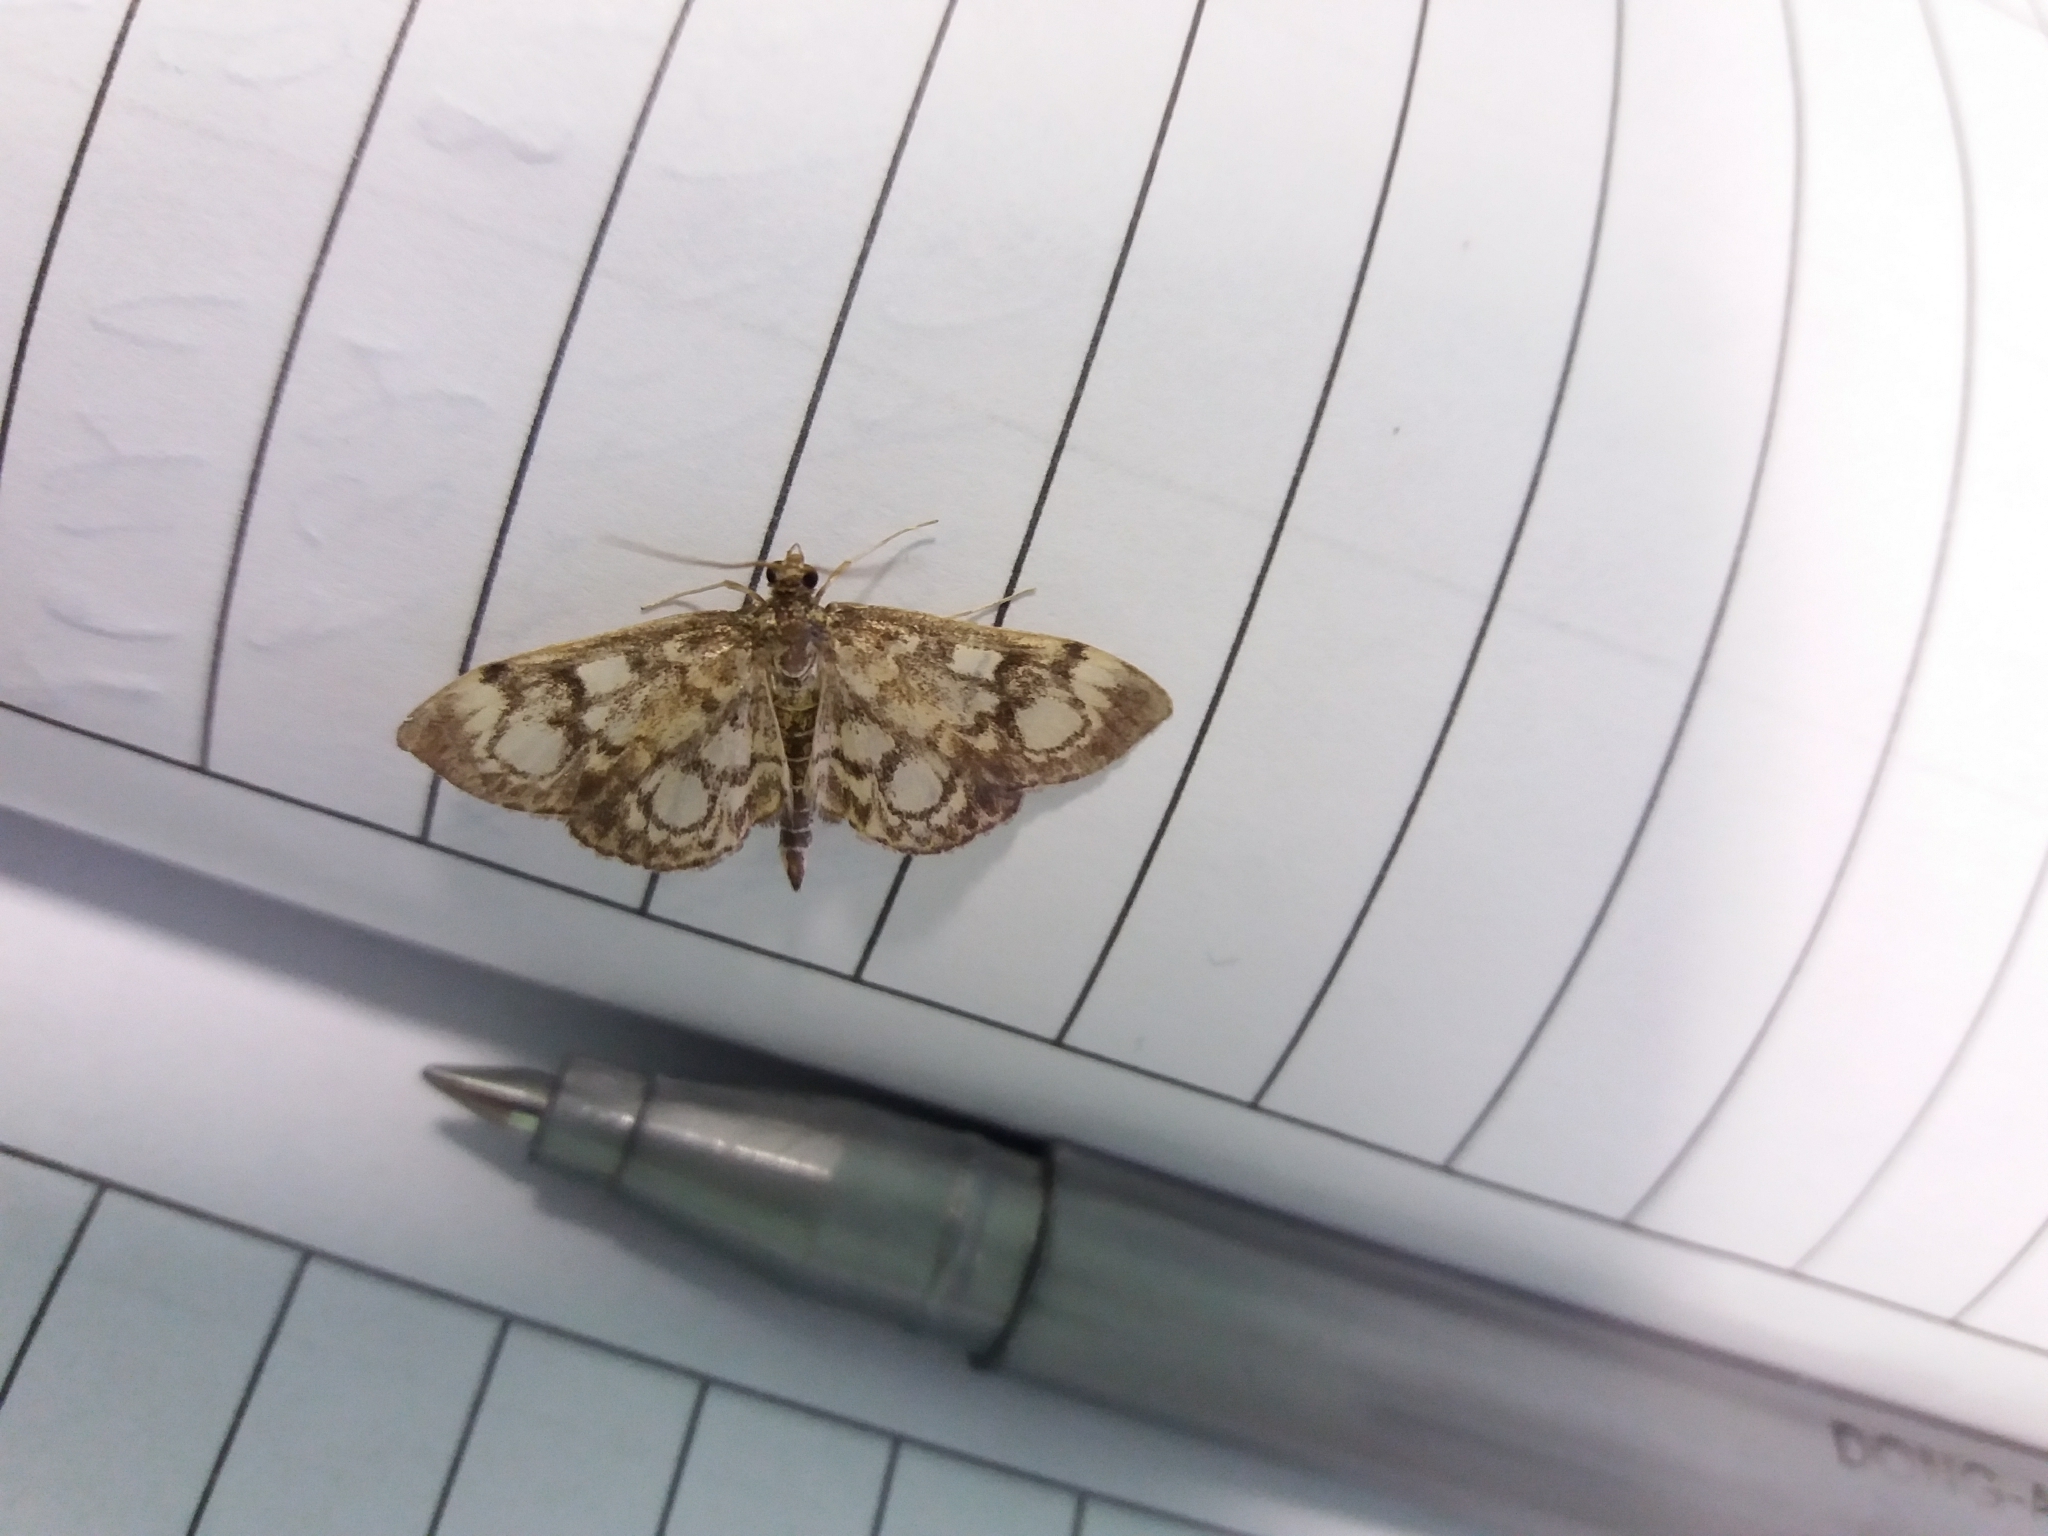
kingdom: Animalia
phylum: Arthropoda
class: Insecta
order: Lepidoptera
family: Crambidae
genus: Anania
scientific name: Anania coronata
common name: Elder pearl
